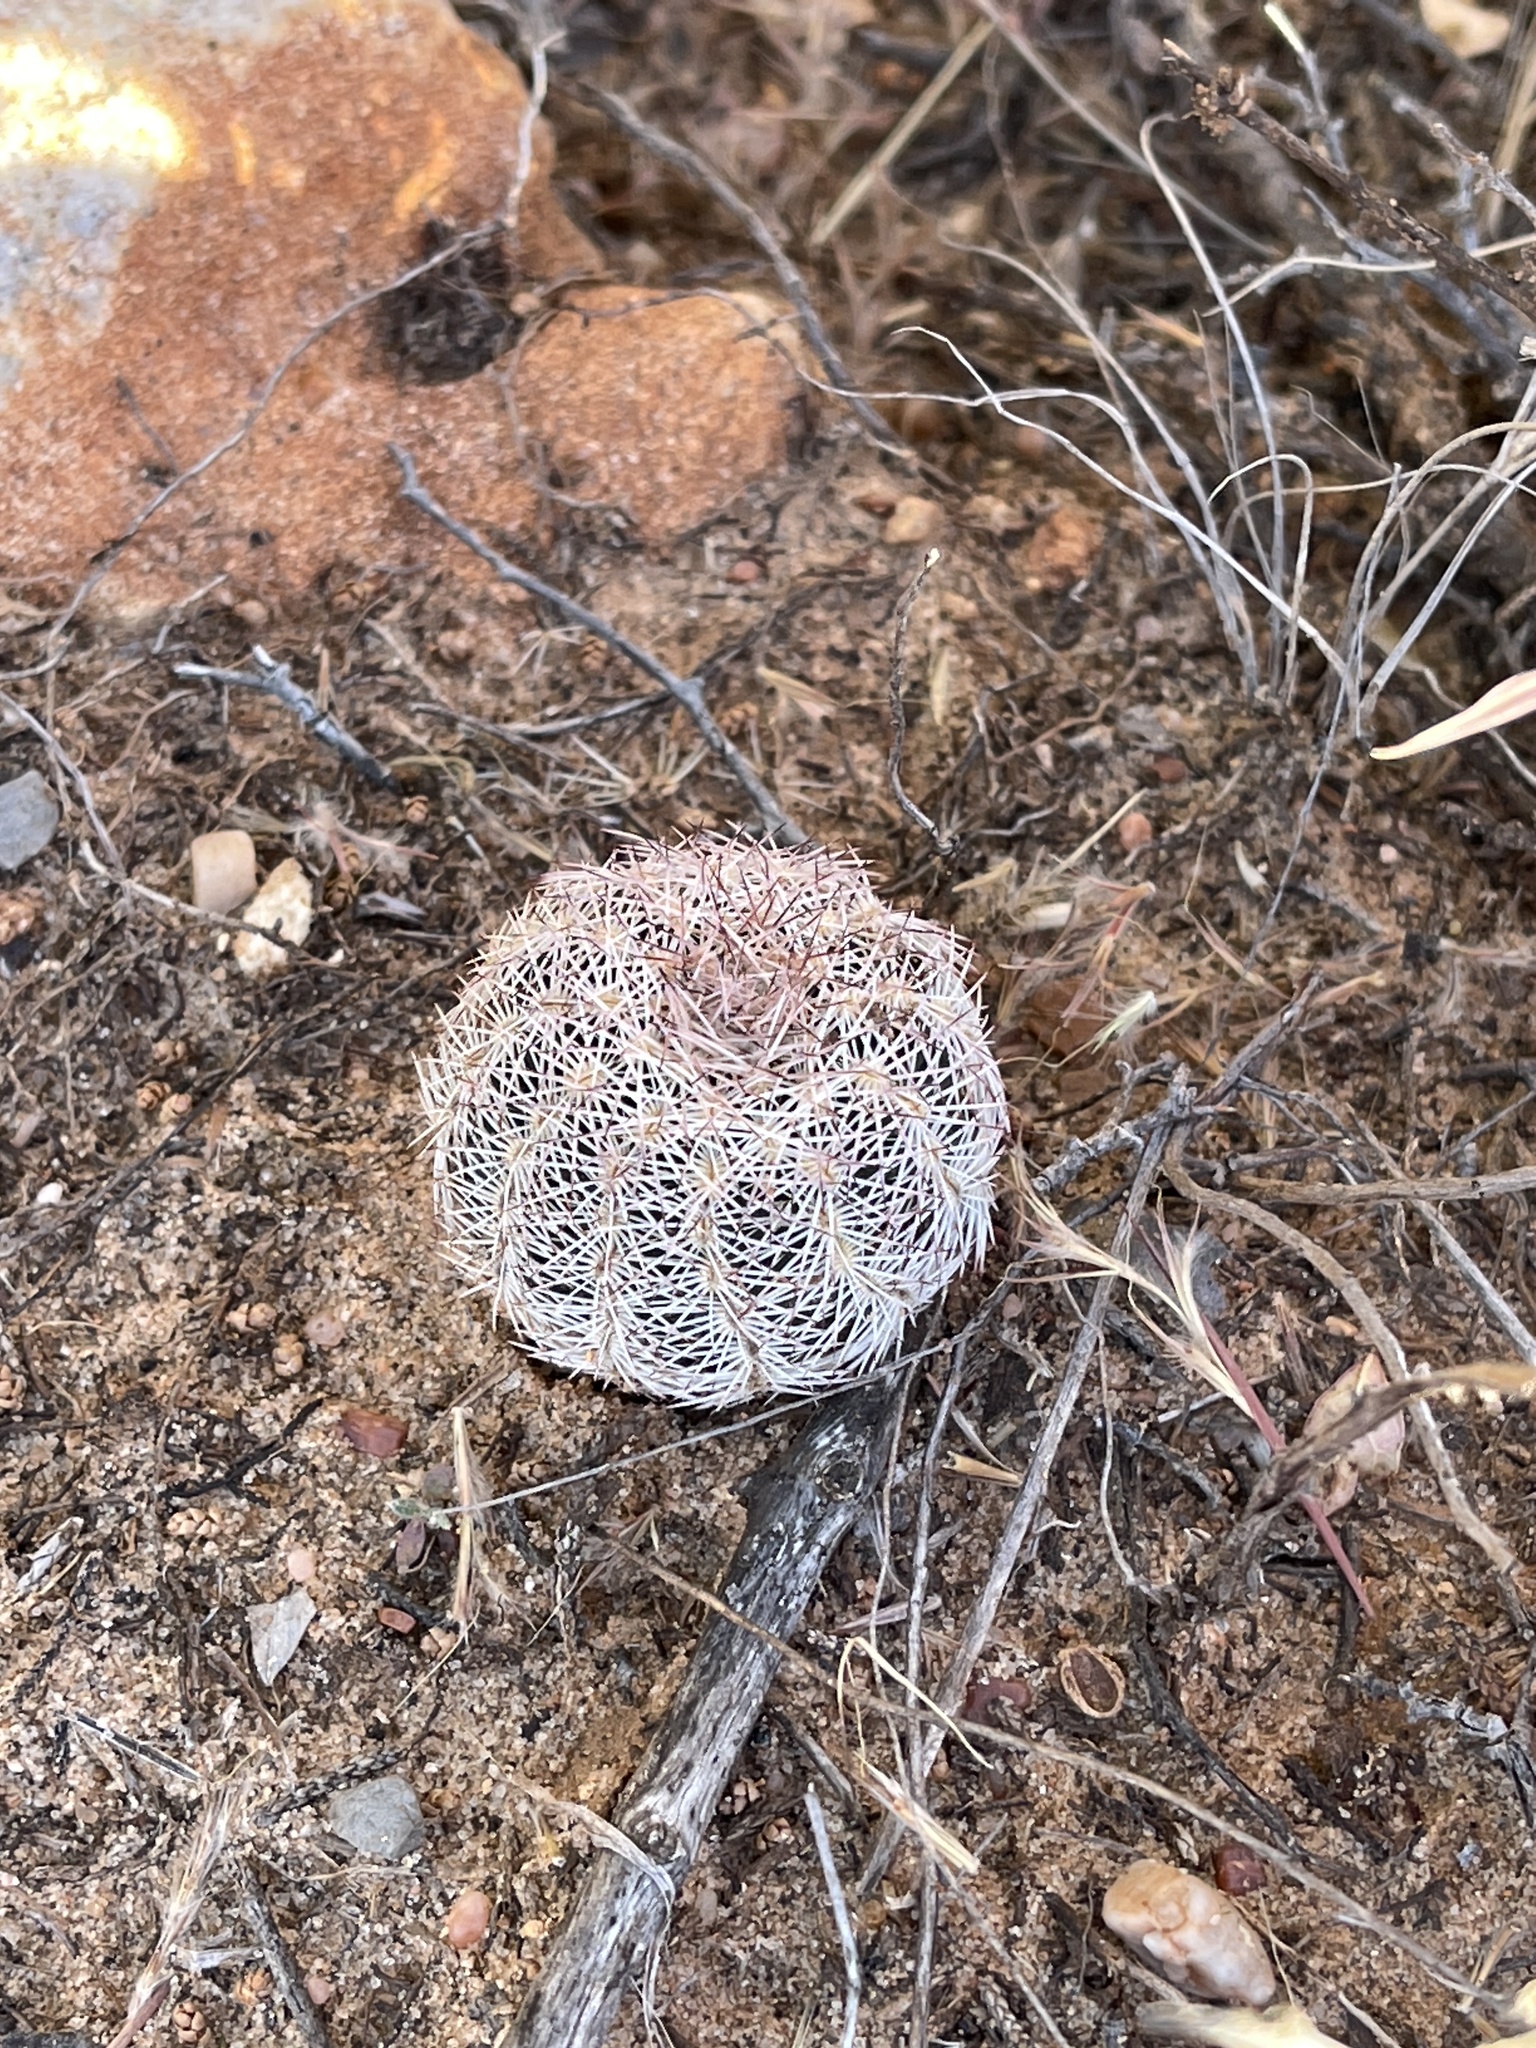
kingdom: Plantae
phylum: Tracheophyta
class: Magnoliopsida
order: Caryophyllales
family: Cactaceae
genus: Echinocereus
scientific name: Echinocereus reichenbachii
